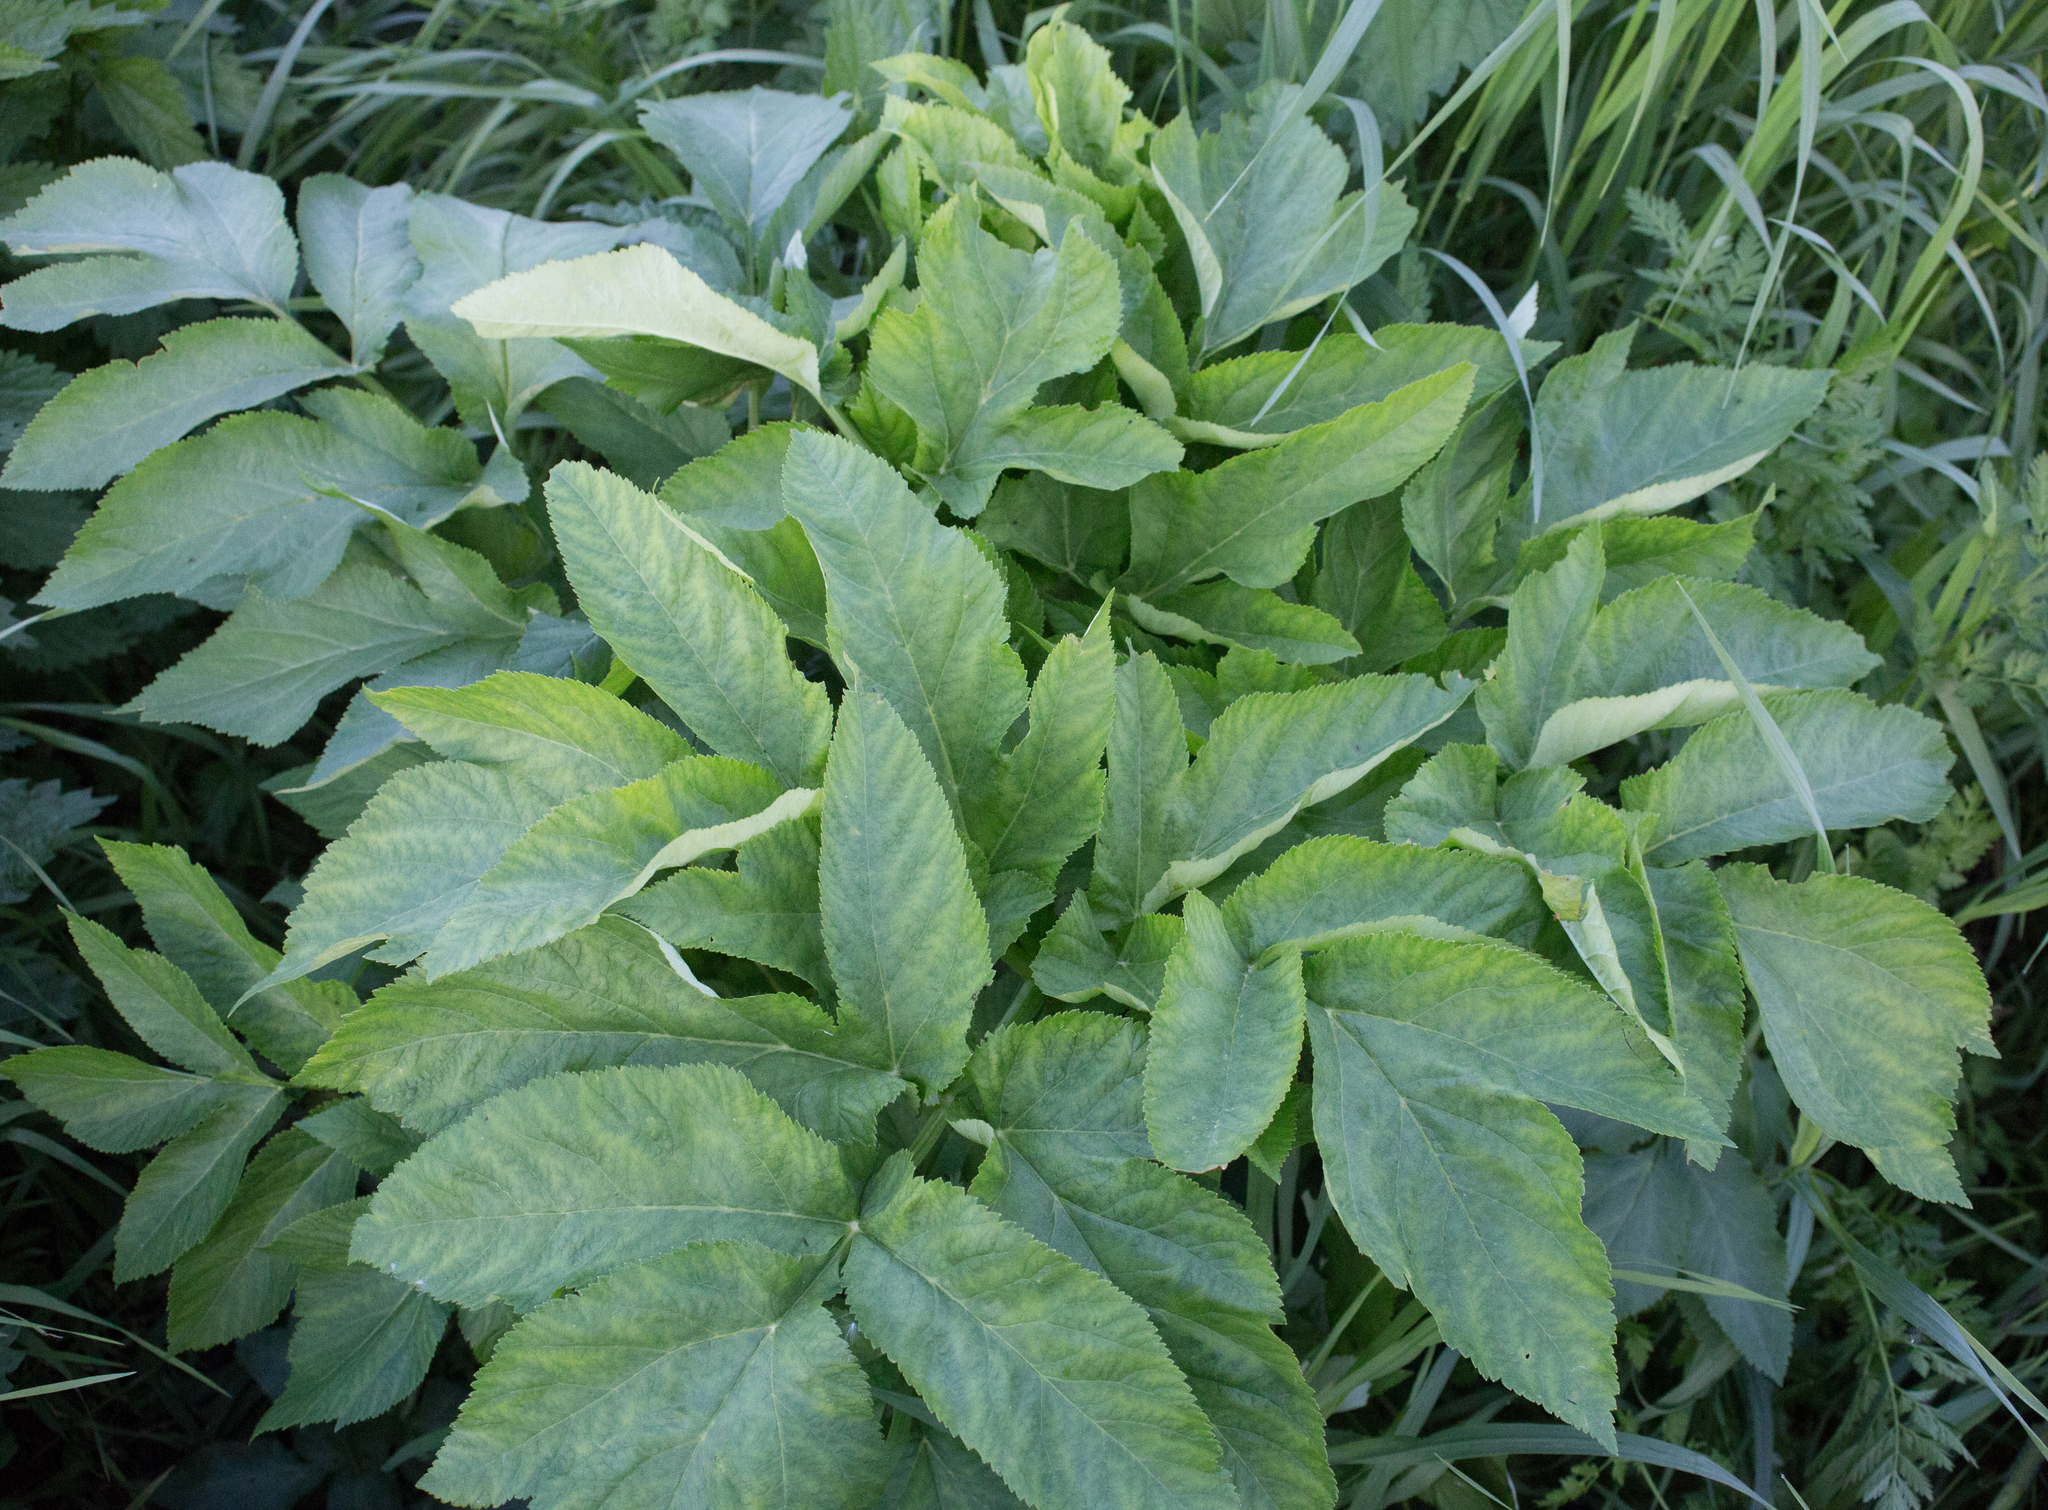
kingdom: Plantae
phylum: Tracheophyta
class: Magnoliopsida
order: Apiales
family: Apiaceae
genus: Angelica
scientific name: Angelica archangelica
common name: Garden angelica
